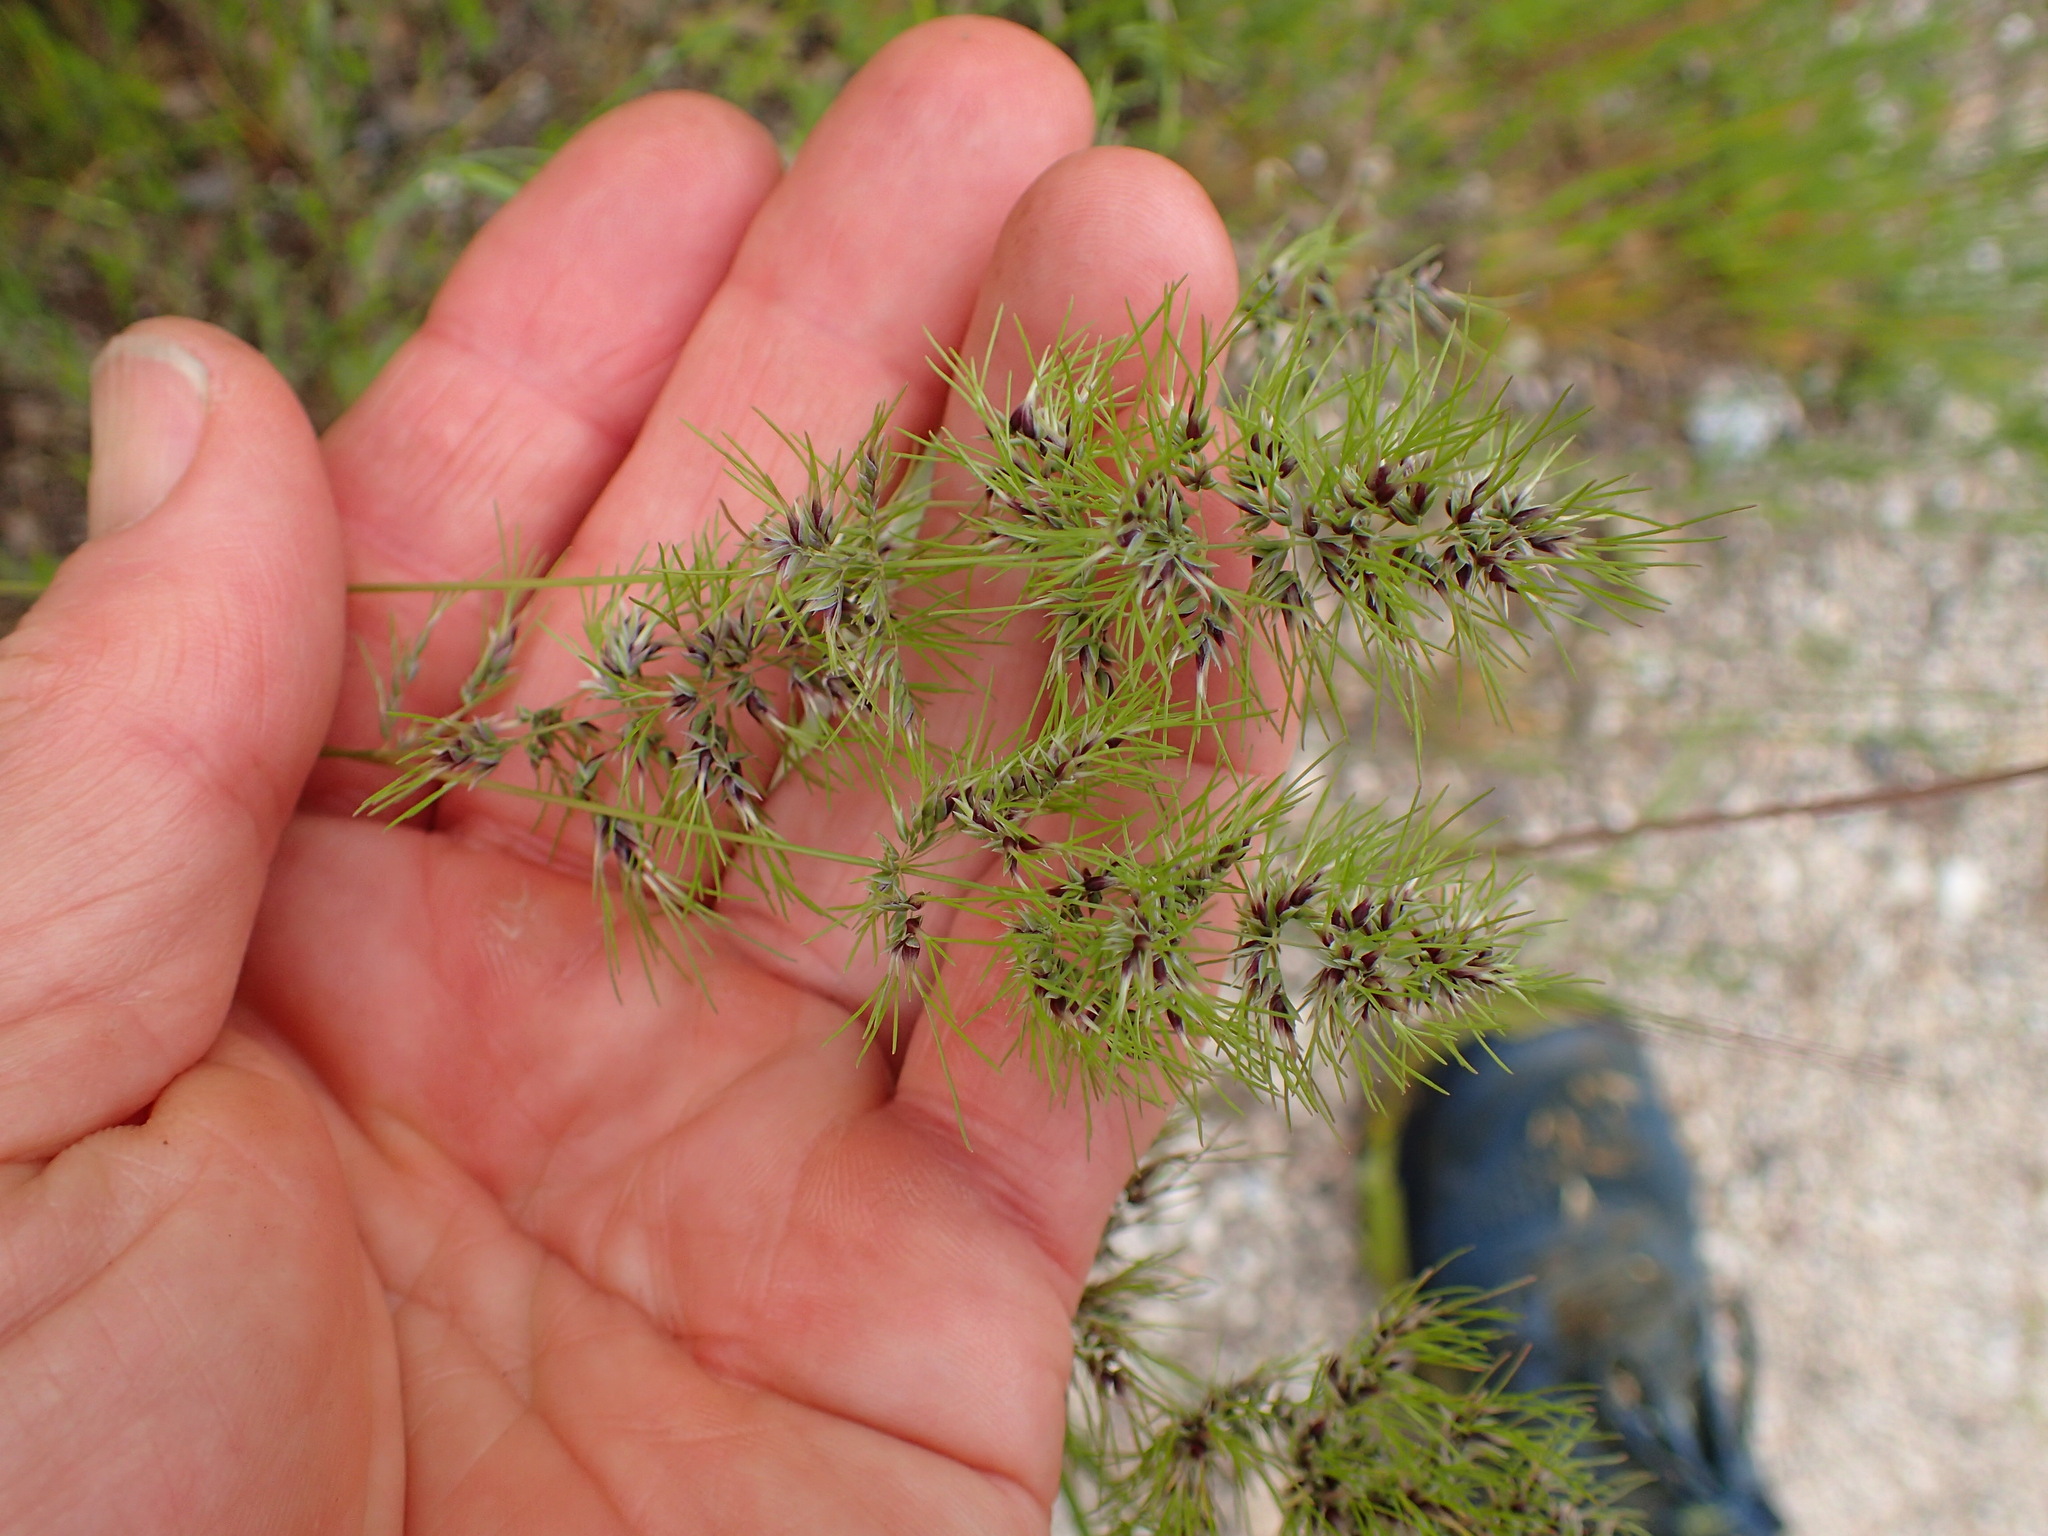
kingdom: Plantae
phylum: Tracheophyta
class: Liliopsida
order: Poales
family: Poaceae
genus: Poa
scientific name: Poa bulbosa
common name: Bulbous bluegrass
